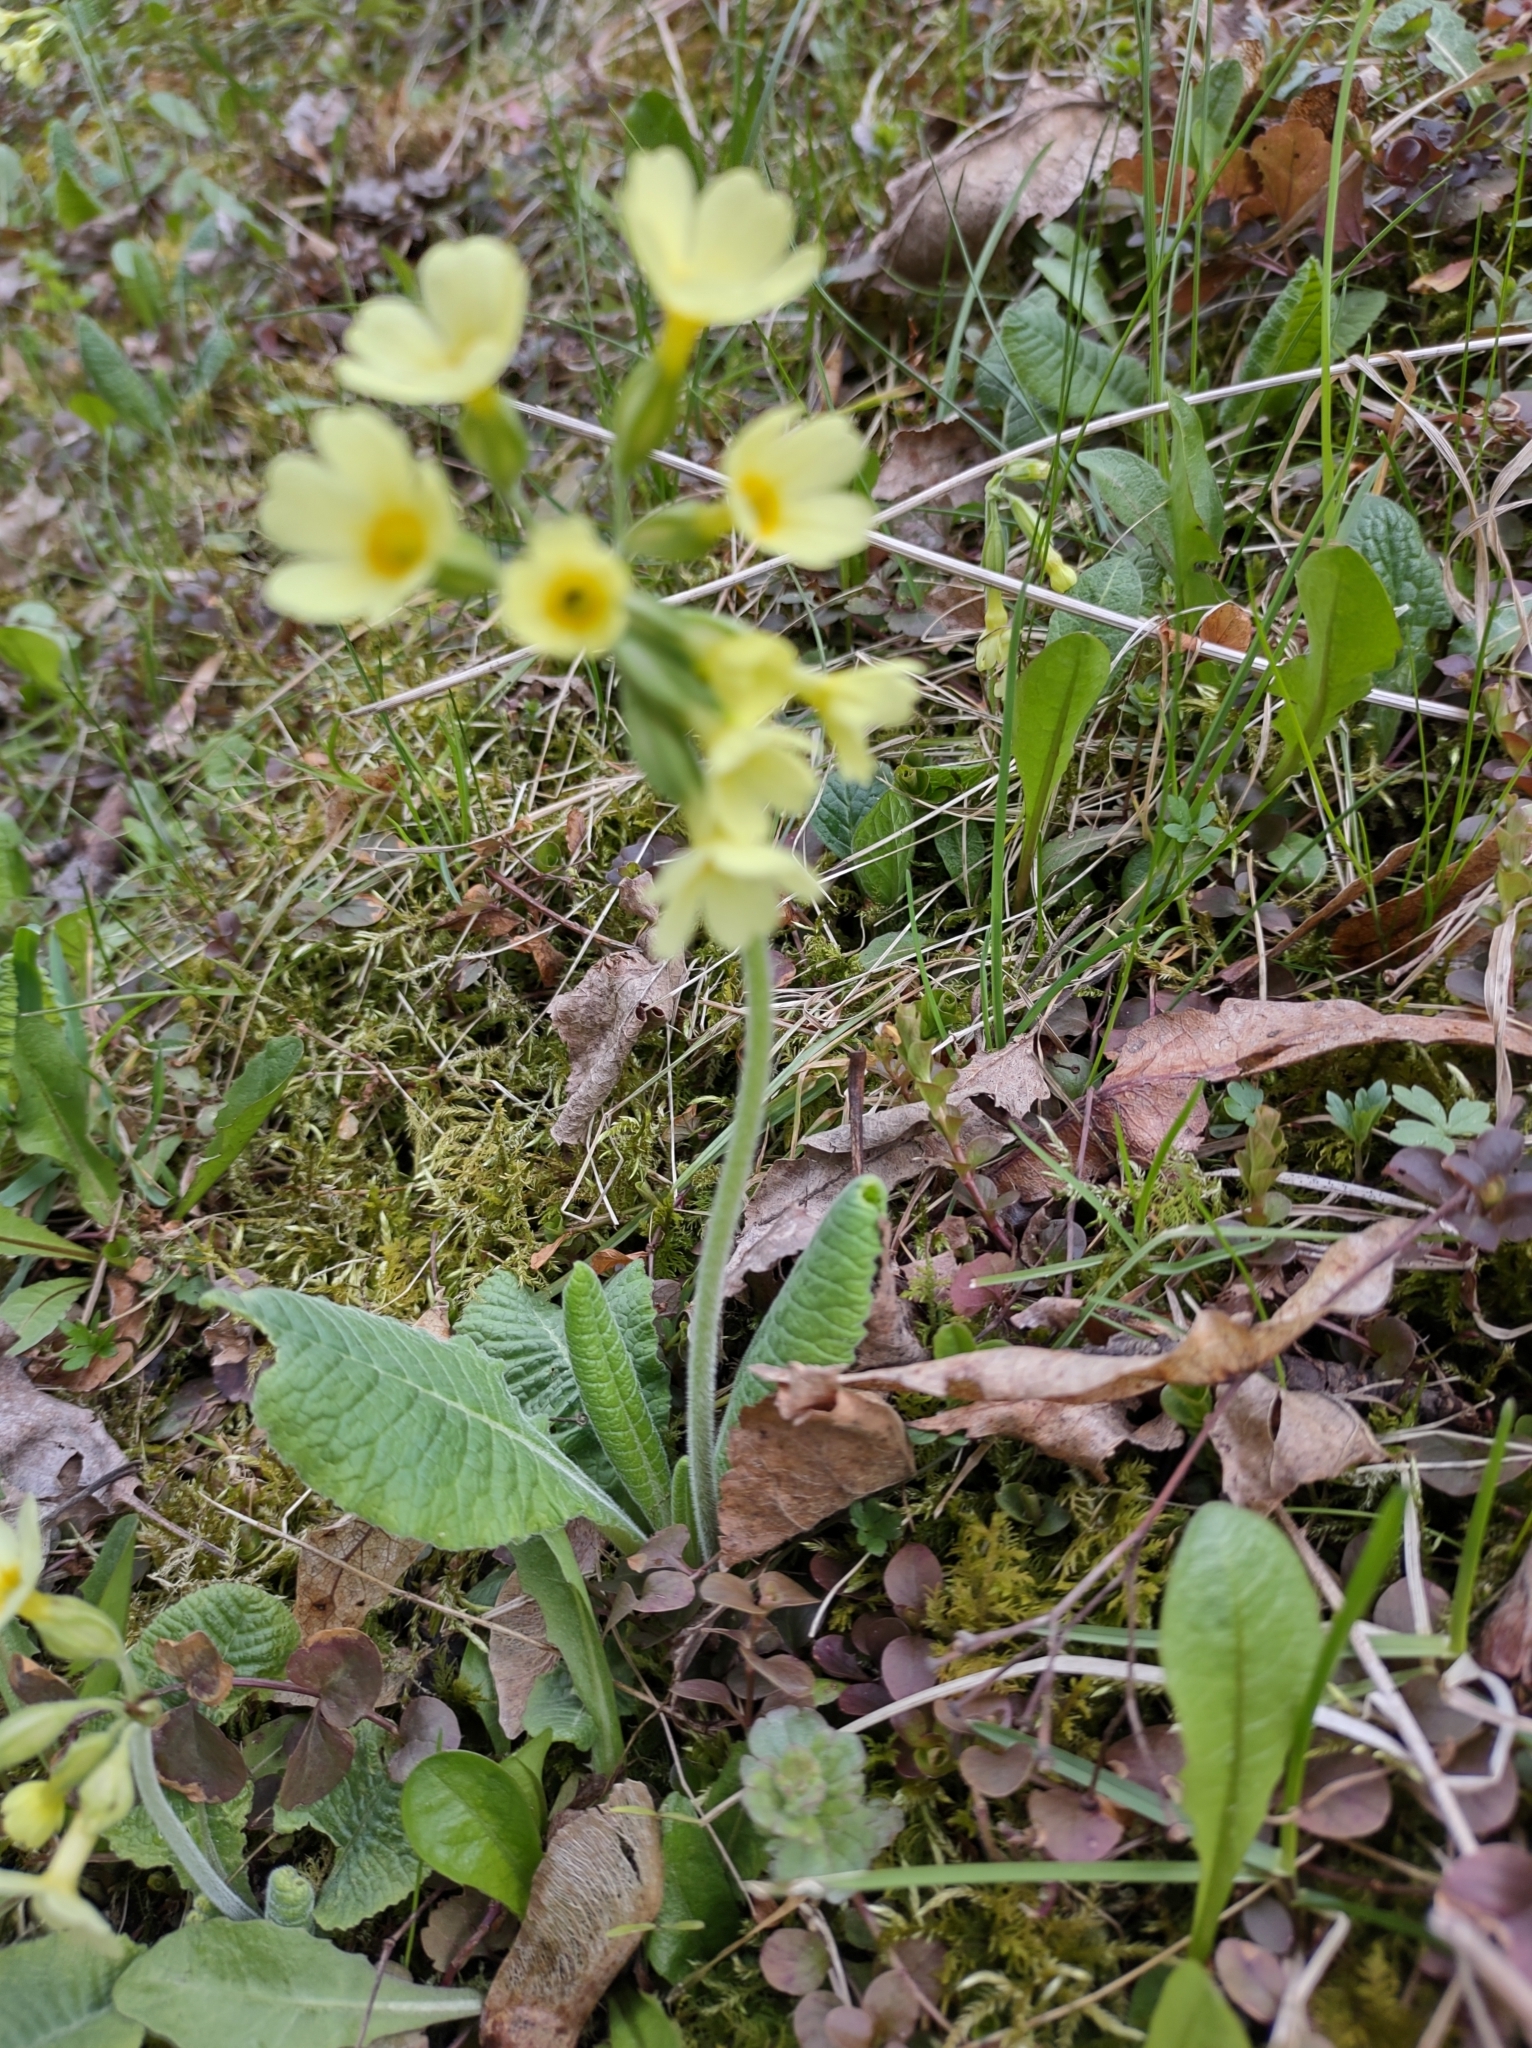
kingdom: Plantae
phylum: Tracheophyta
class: Magnoliopsida
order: Ericales
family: Primulaceae
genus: Primula
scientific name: Primula elatior
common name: Oxlip
